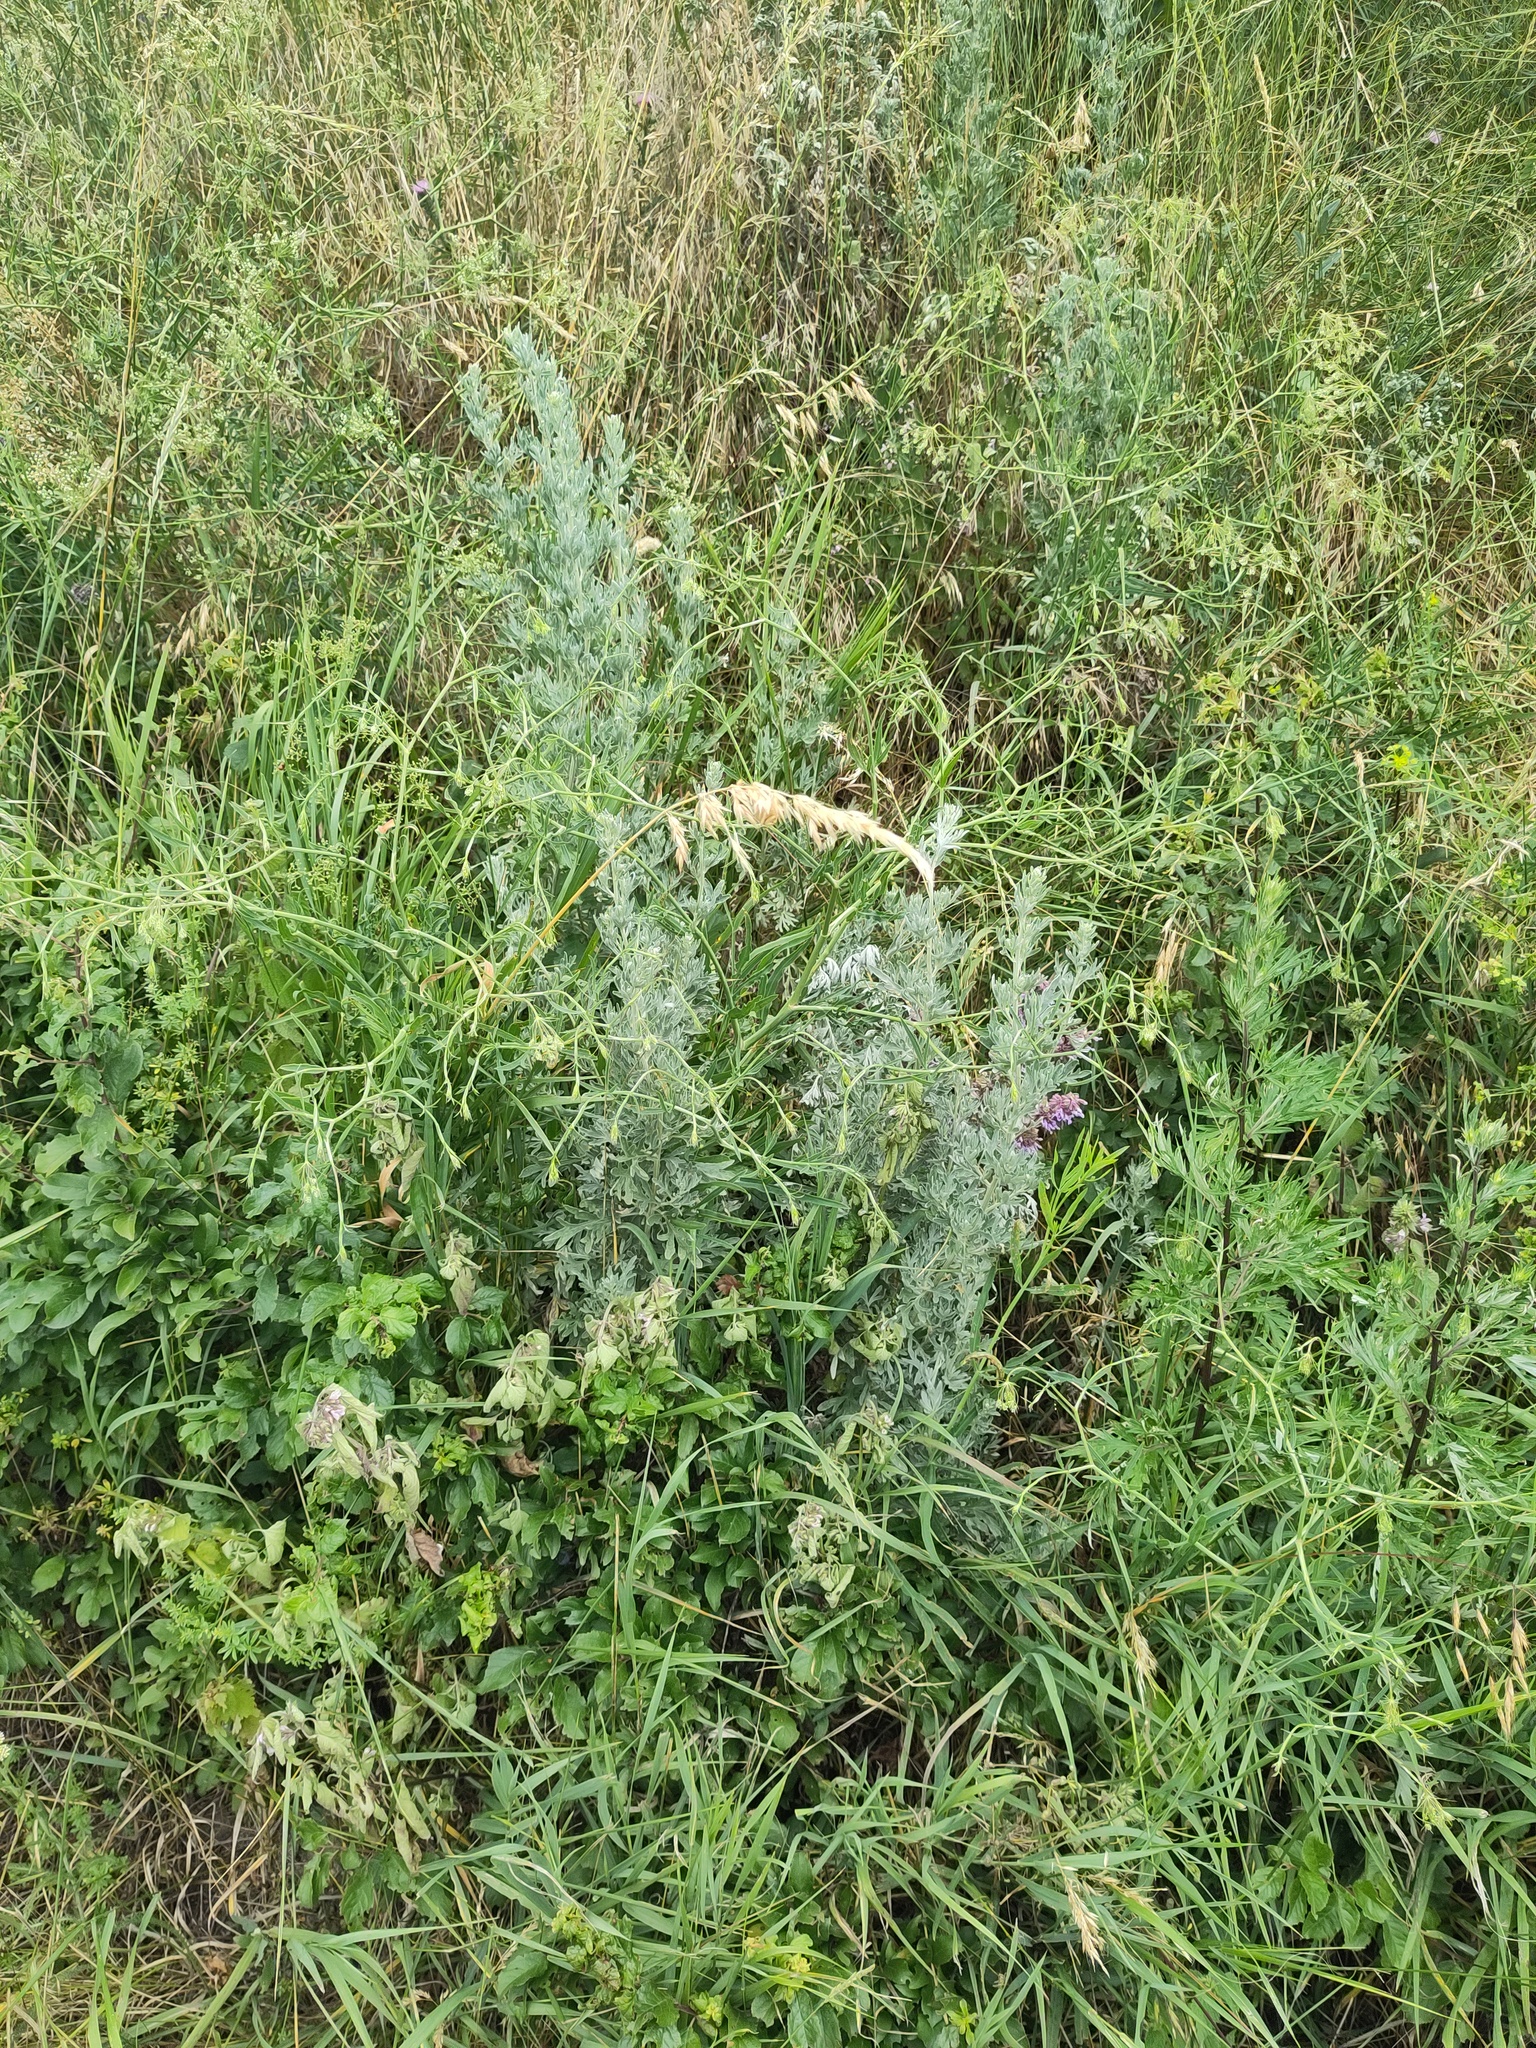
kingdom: Plantae
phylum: Tracheophyta
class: Magnoliopsida
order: Asterales
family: Asteraceae
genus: Artemisia
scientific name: Artemisia absinthium
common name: Wormwood
